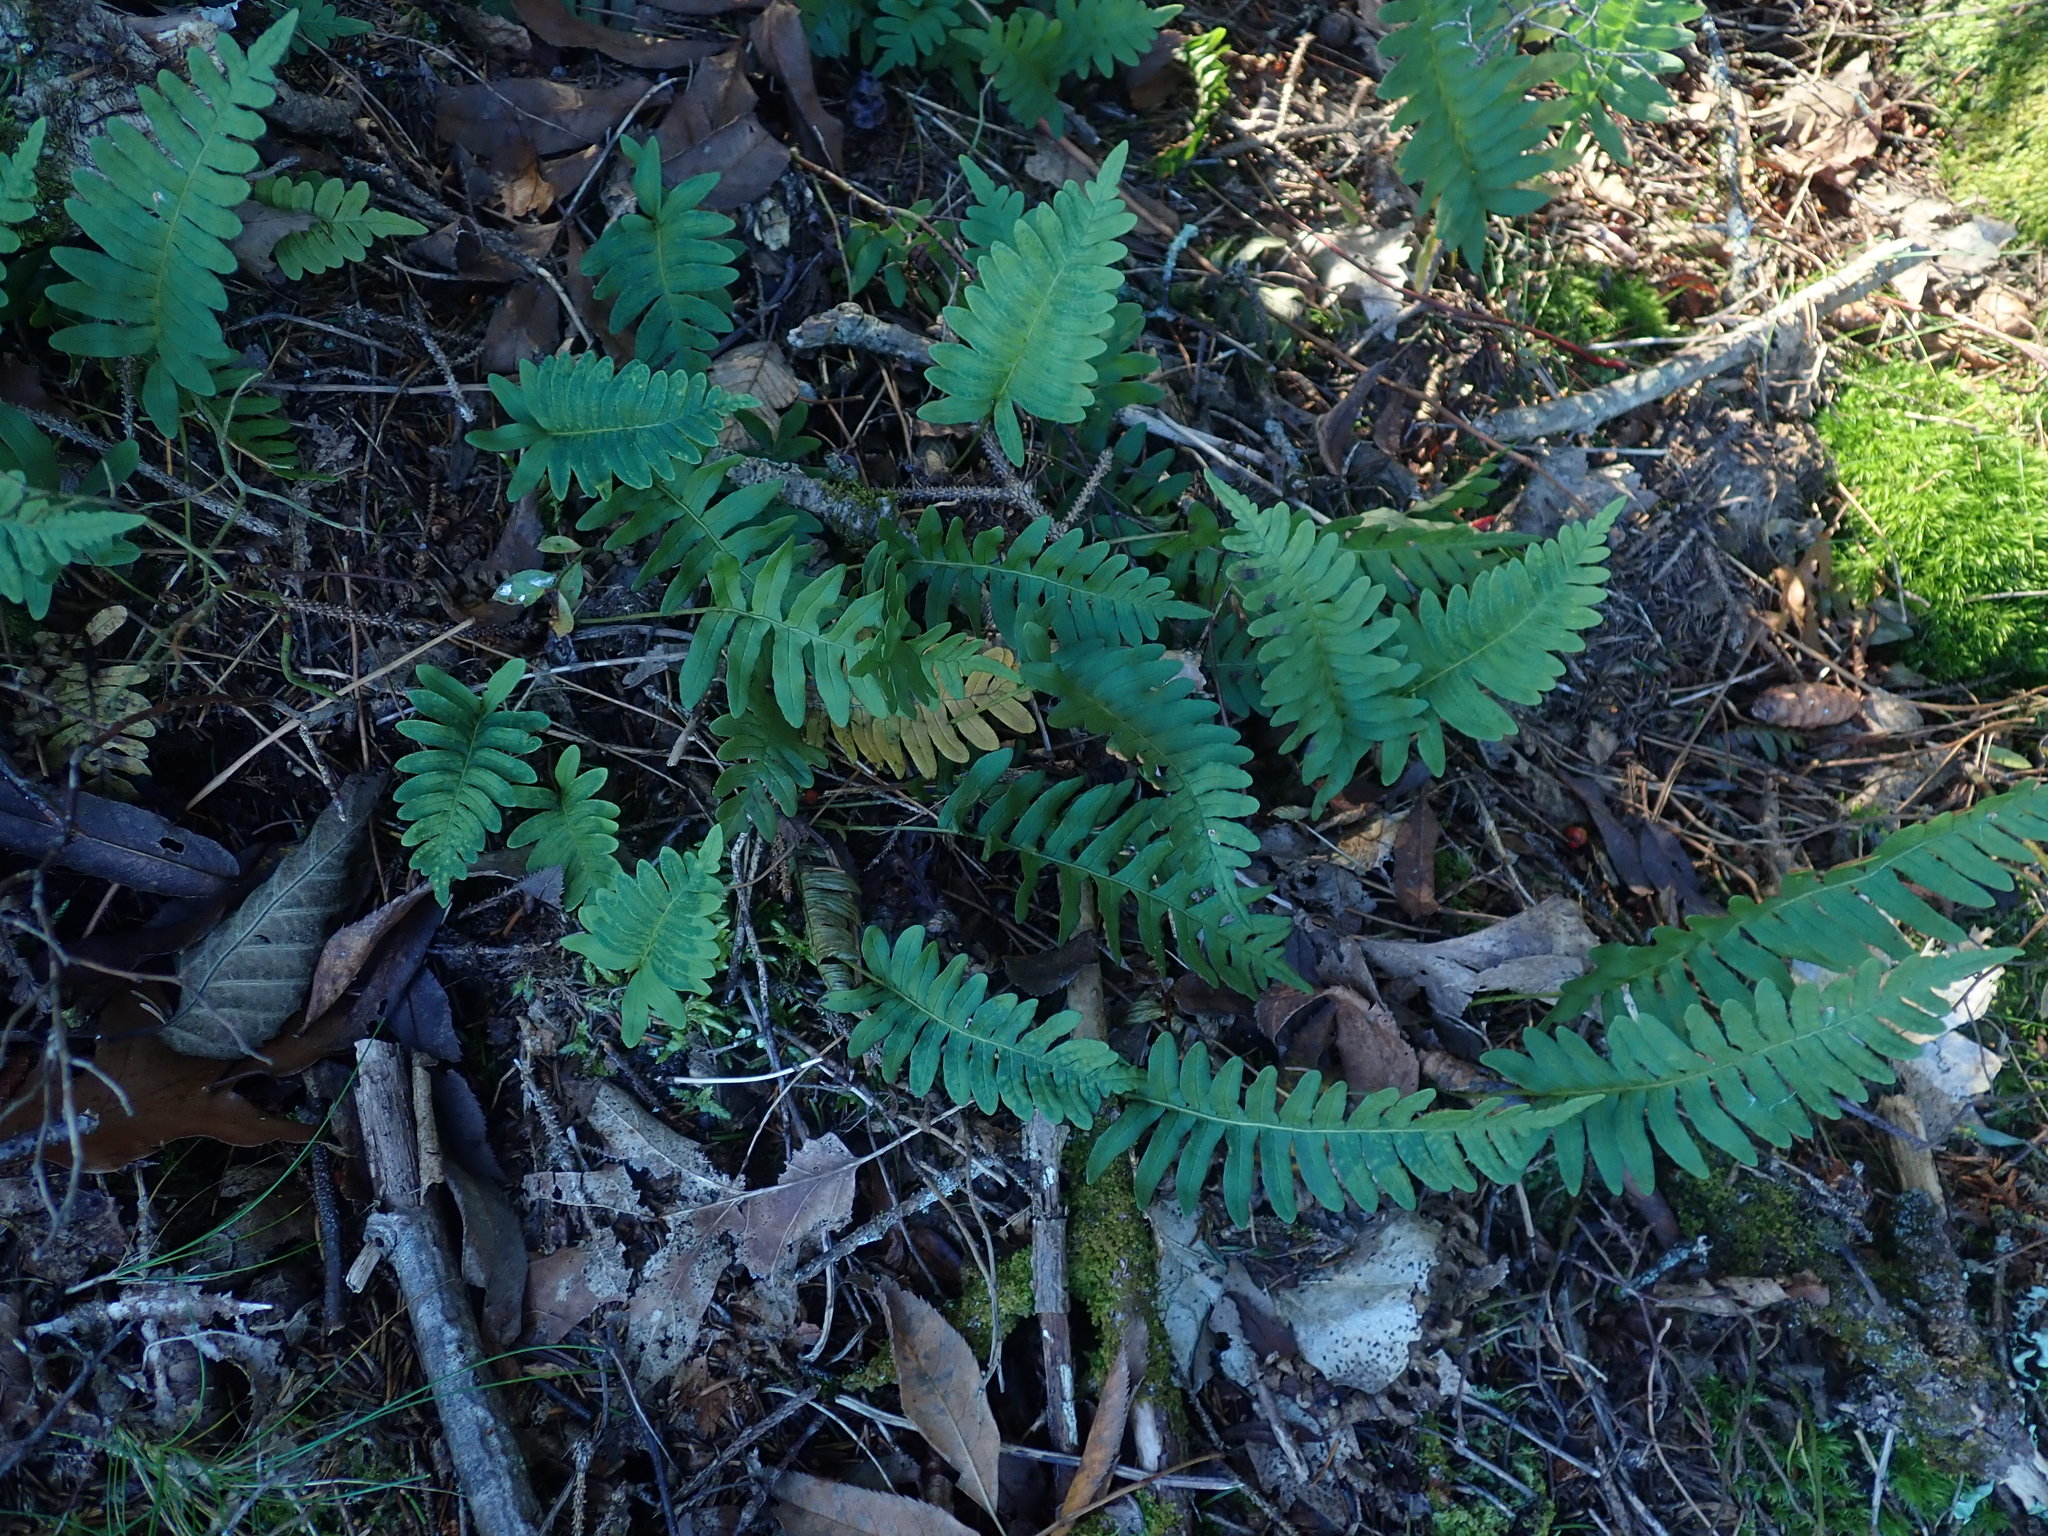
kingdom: Plantae
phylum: Tracheophyta
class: Polypodiopsida
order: Polypodiales
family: Polypodiaceae
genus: Polypodium
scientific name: Polypodium
